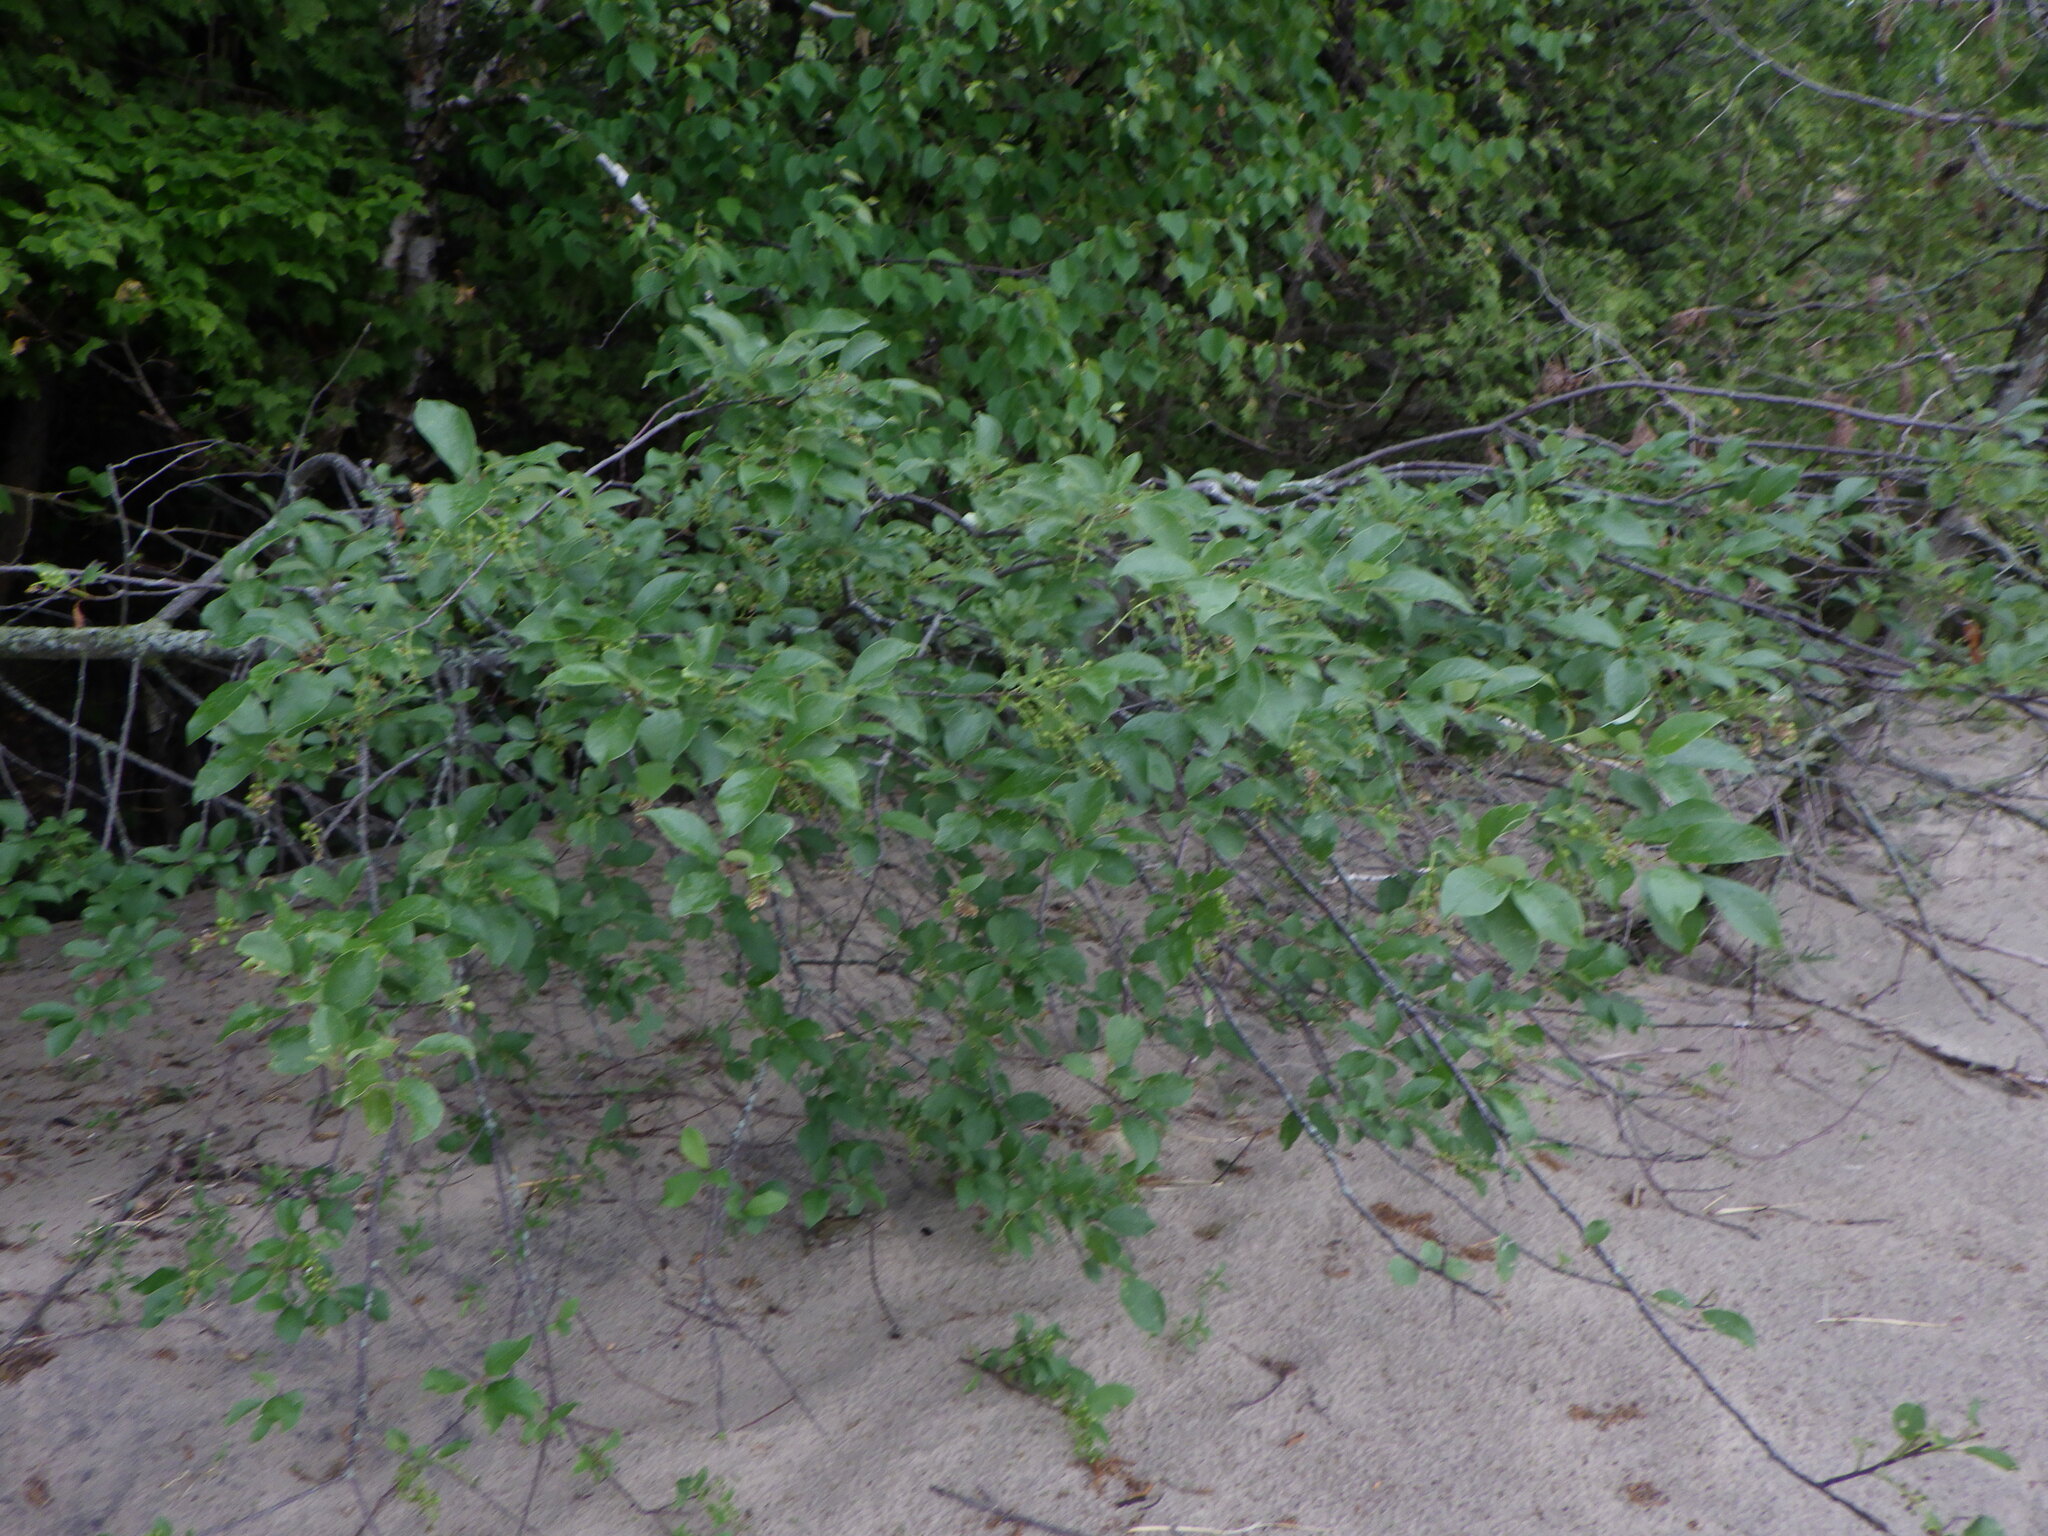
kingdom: Plantae
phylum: Tracheophyta
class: Magnoliopsida
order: Rosales
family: Rosaceae
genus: Prunus
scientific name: Prunus virginiana
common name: Chokecherry
